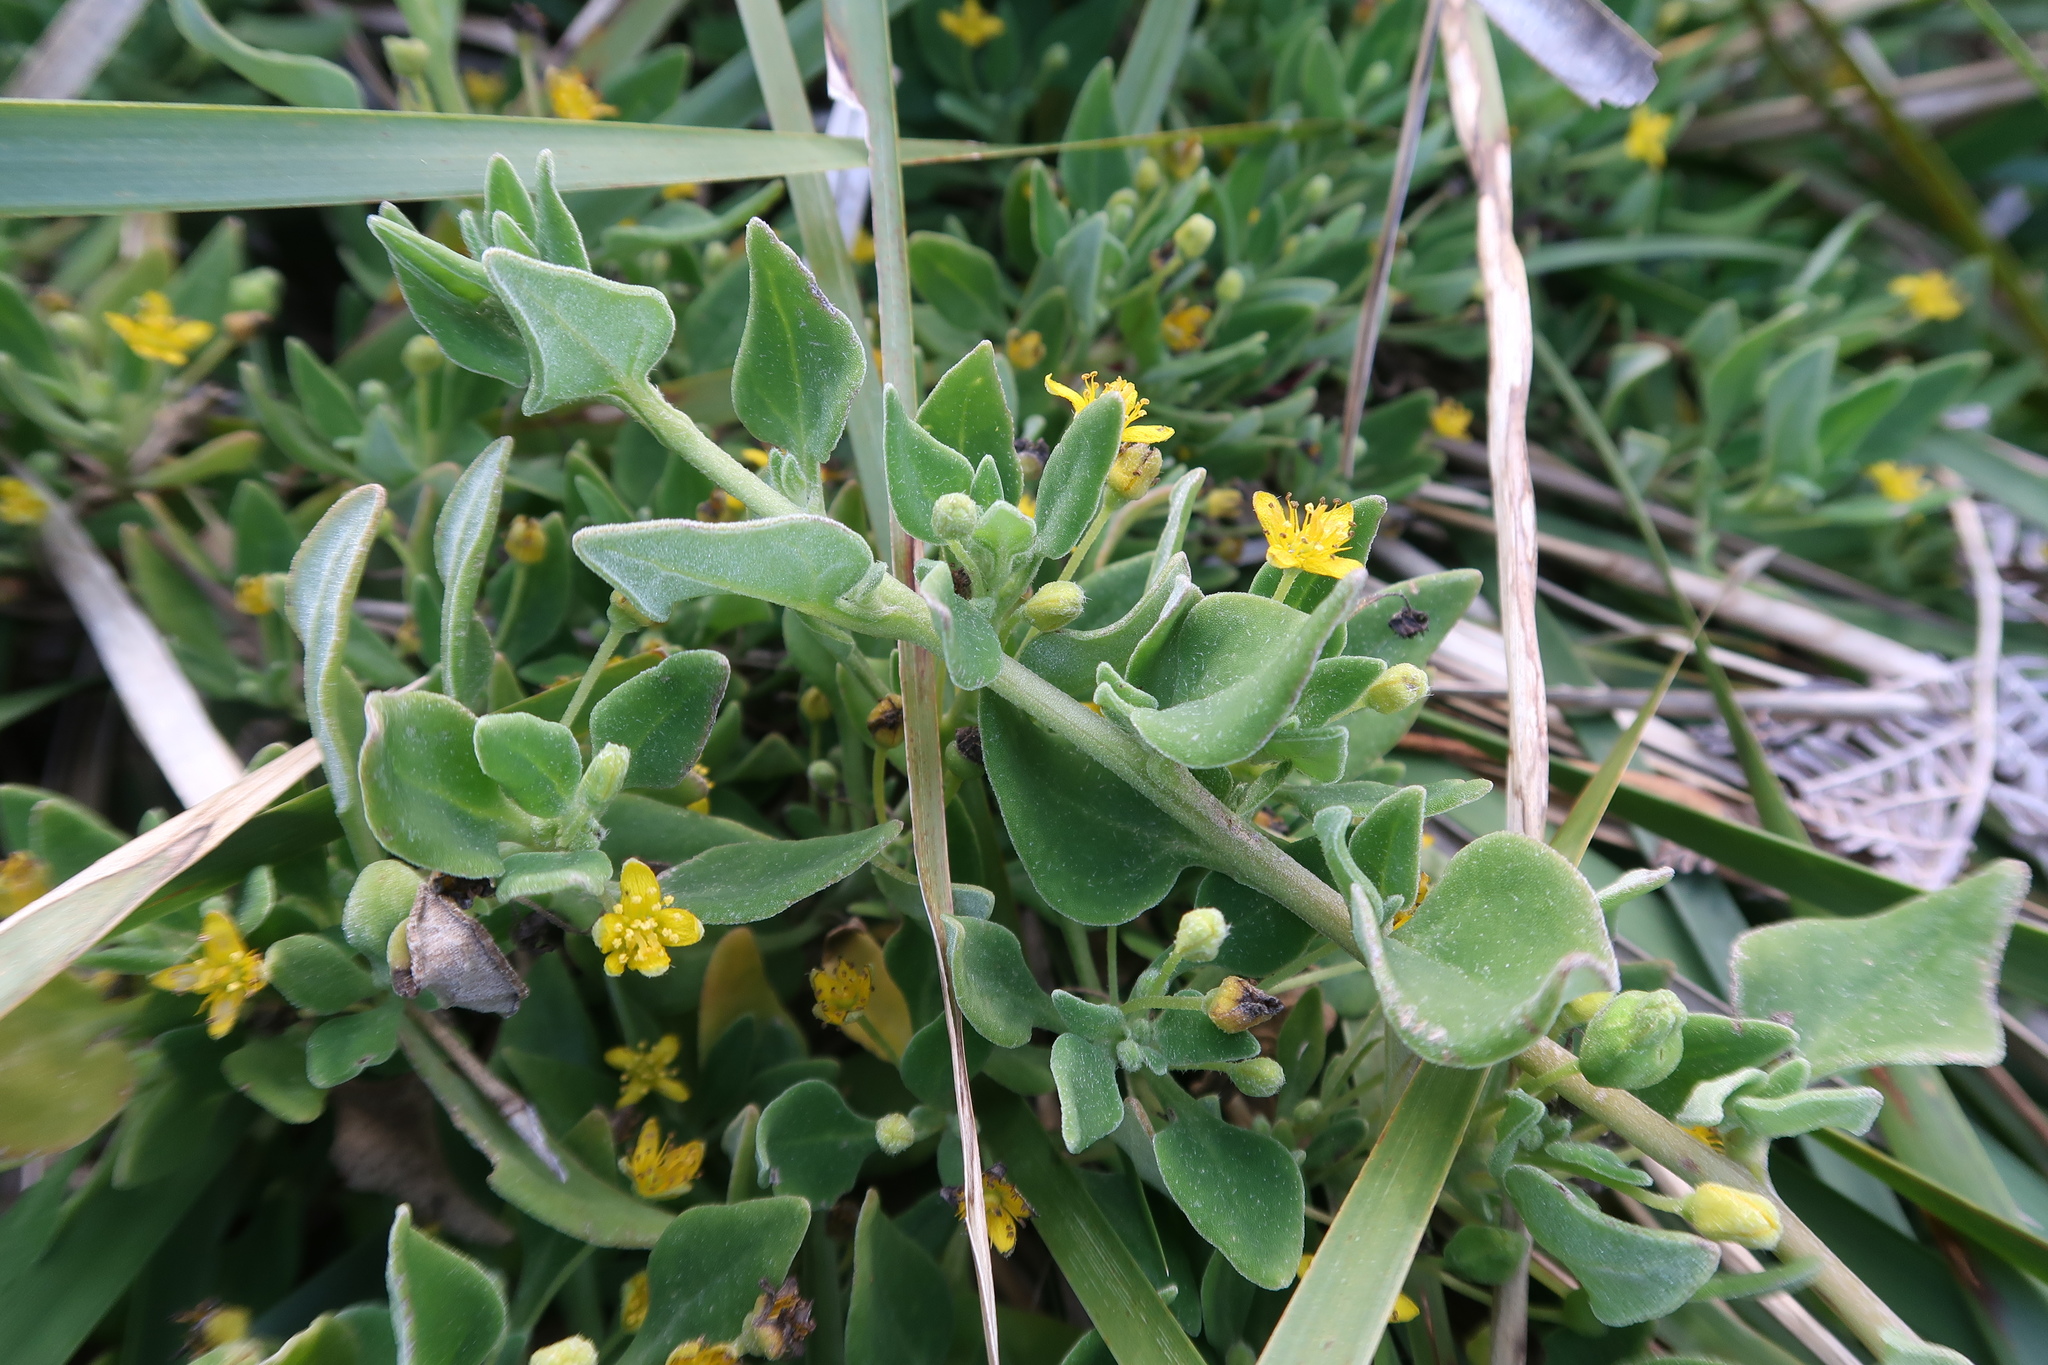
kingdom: Plantae
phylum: Tracheophyta
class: Magnoliopsida
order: Caryophyllales
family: Aizoaceae
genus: Tetragonia
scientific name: Tetragonia implexicoma
